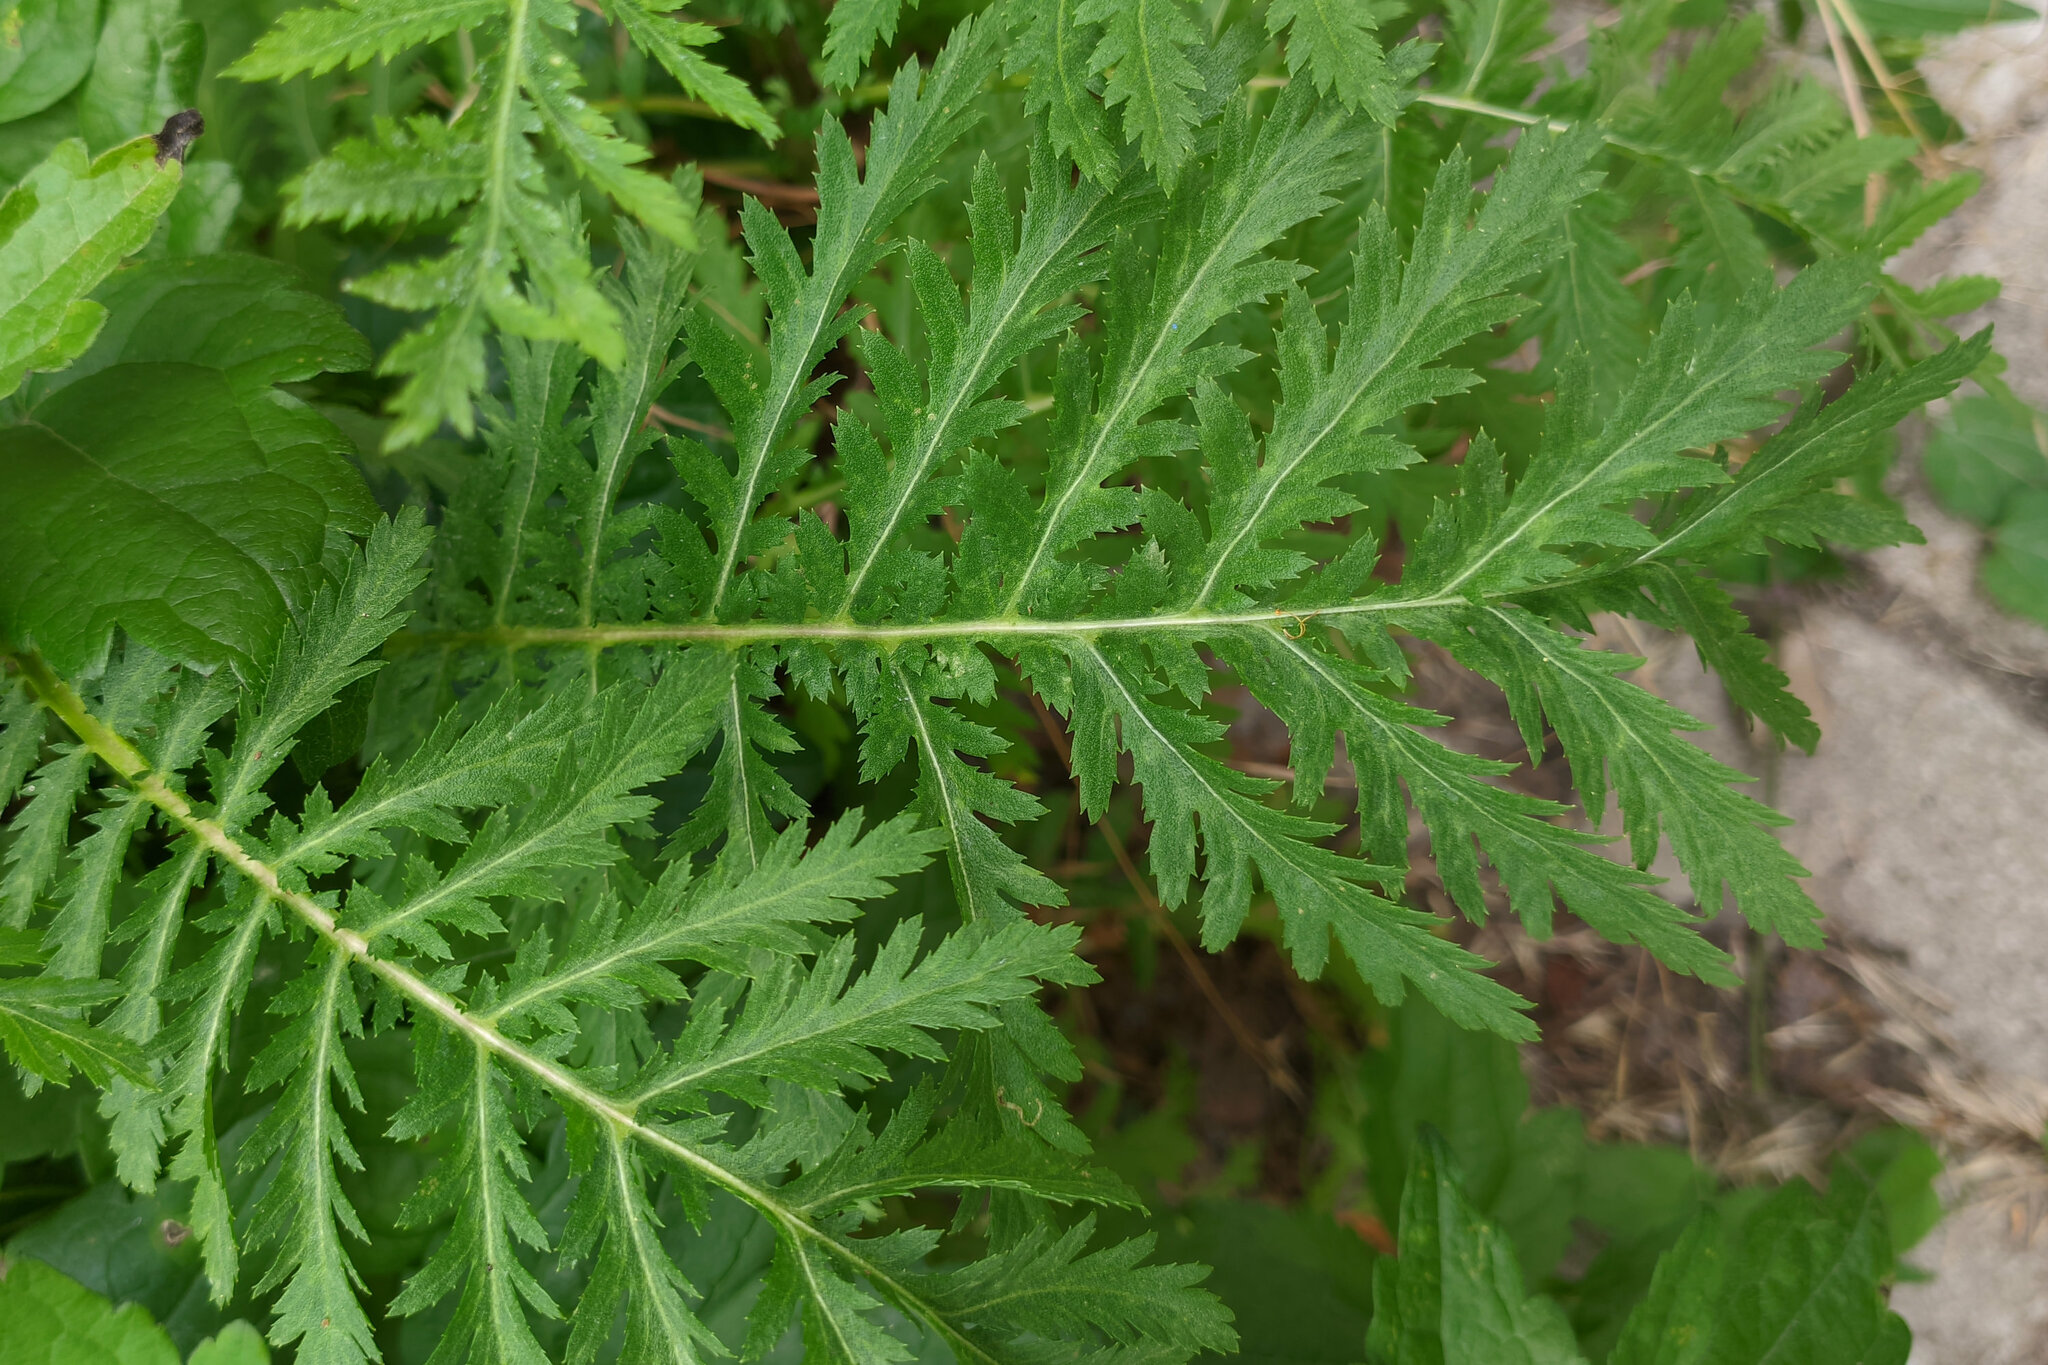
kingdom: Plantae
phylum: Tracheophyta
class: Magnoliopsida
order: Asterales
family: Asteraceae
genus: Tanacetum
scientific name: Tanacetum vulgare
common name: Common tansy
